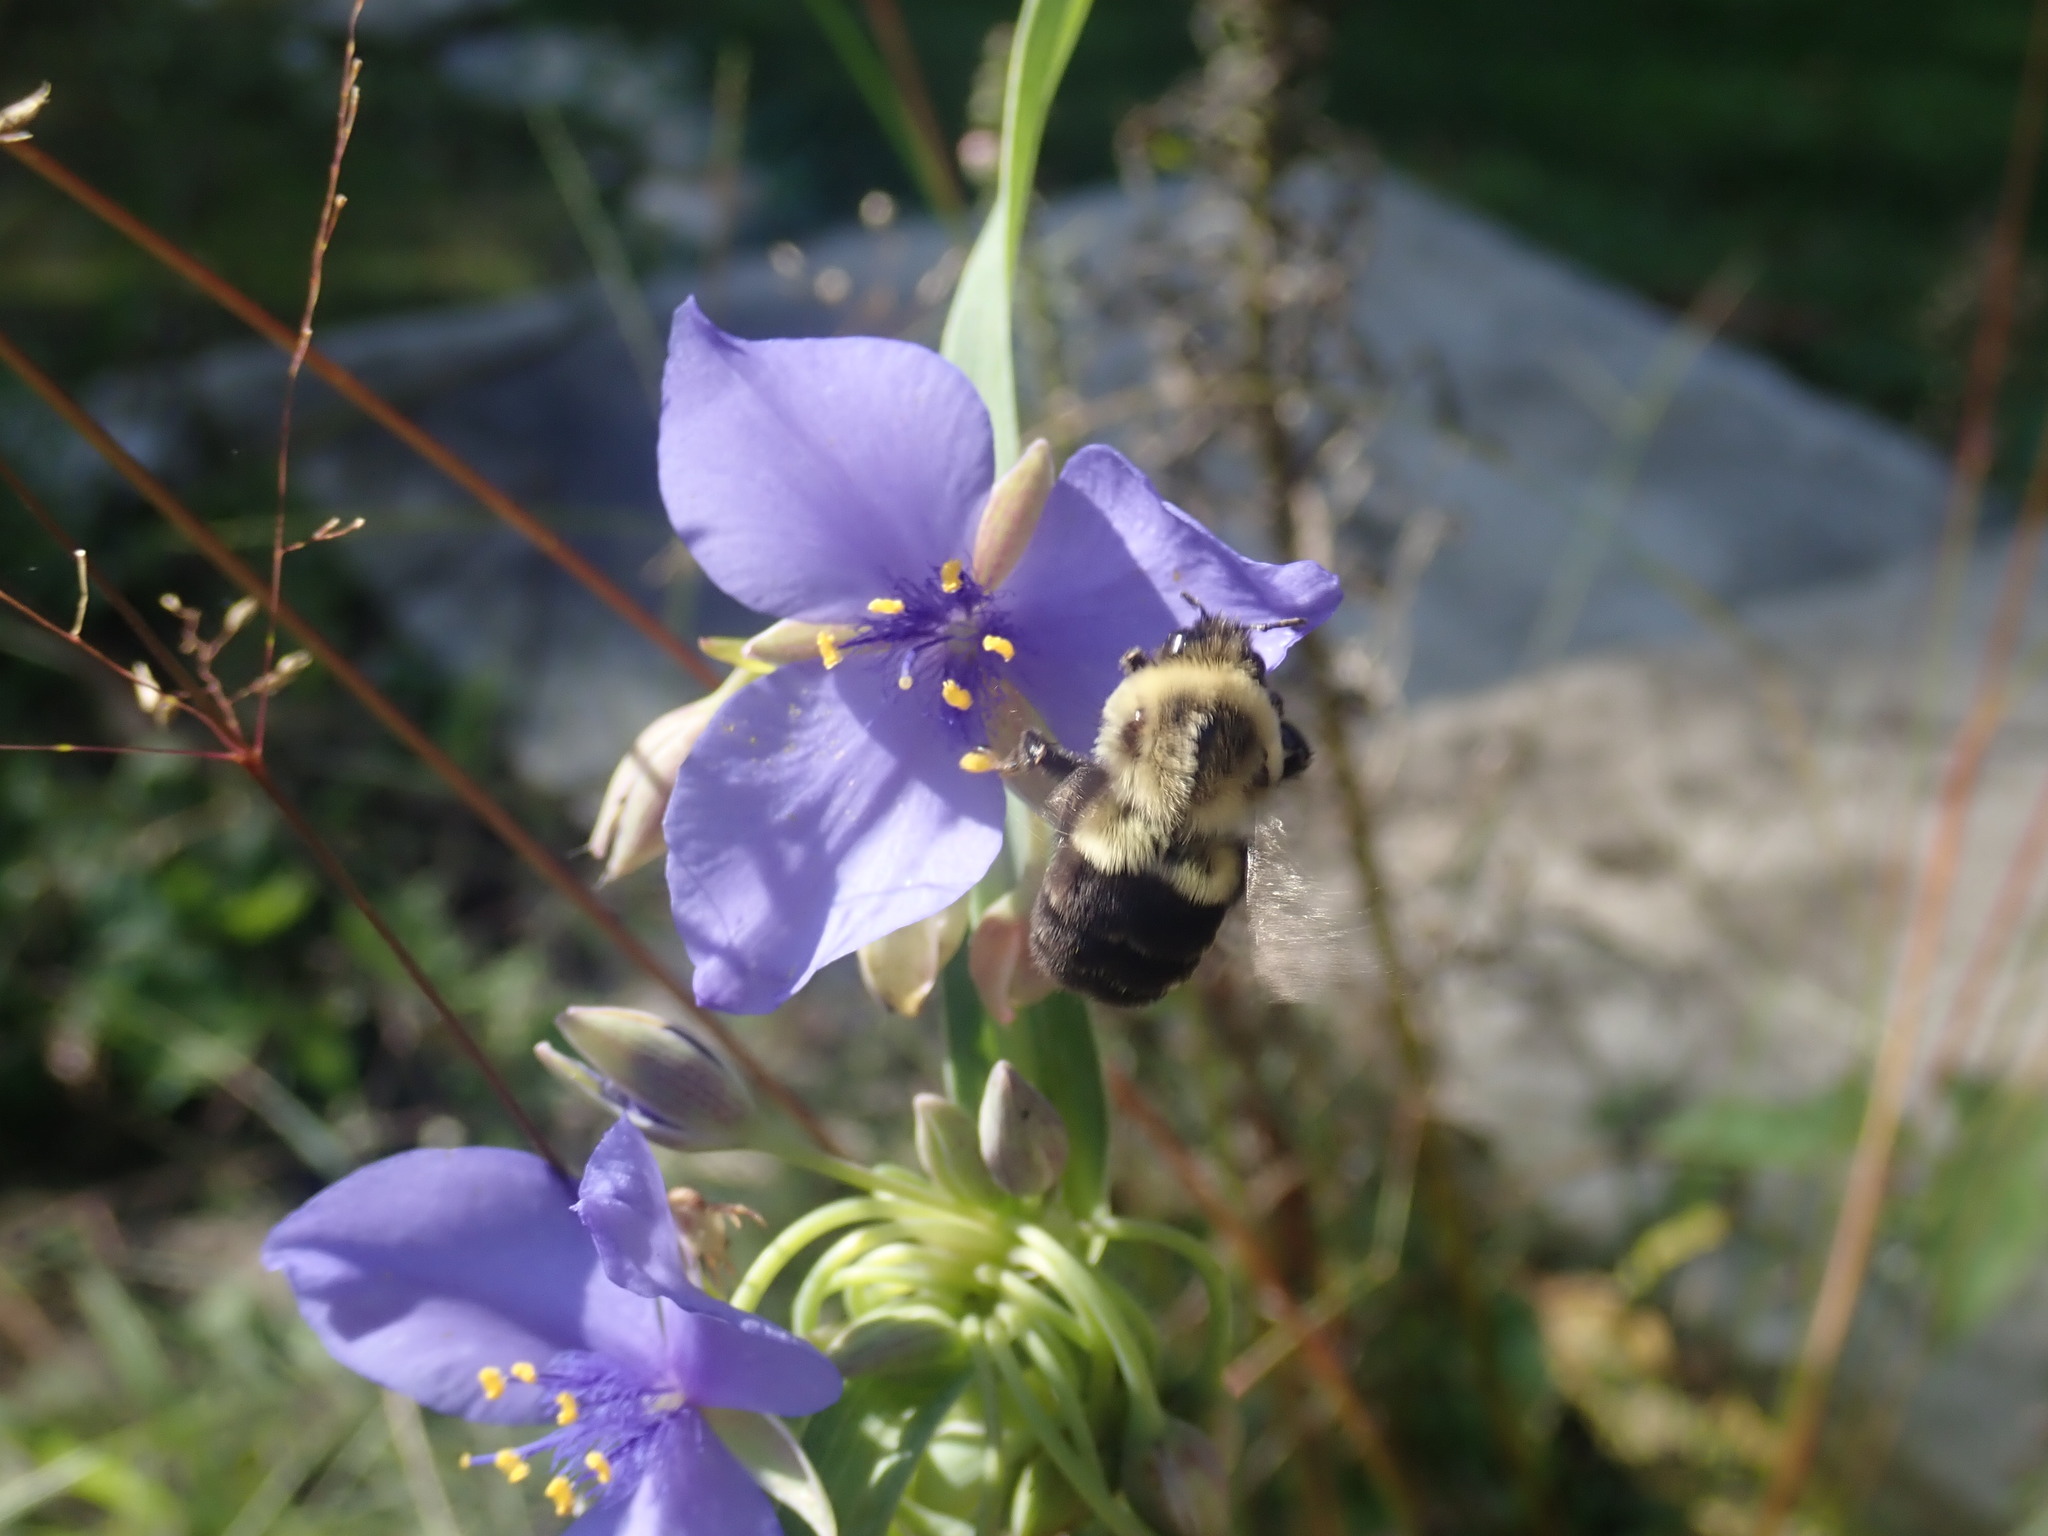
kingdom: Animalia
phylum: Arthropoda
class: Insecta
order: Hymenoptera
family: Apidae
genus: Bombus
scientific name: Bombus impatiens
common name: Common eastern bumble bee
